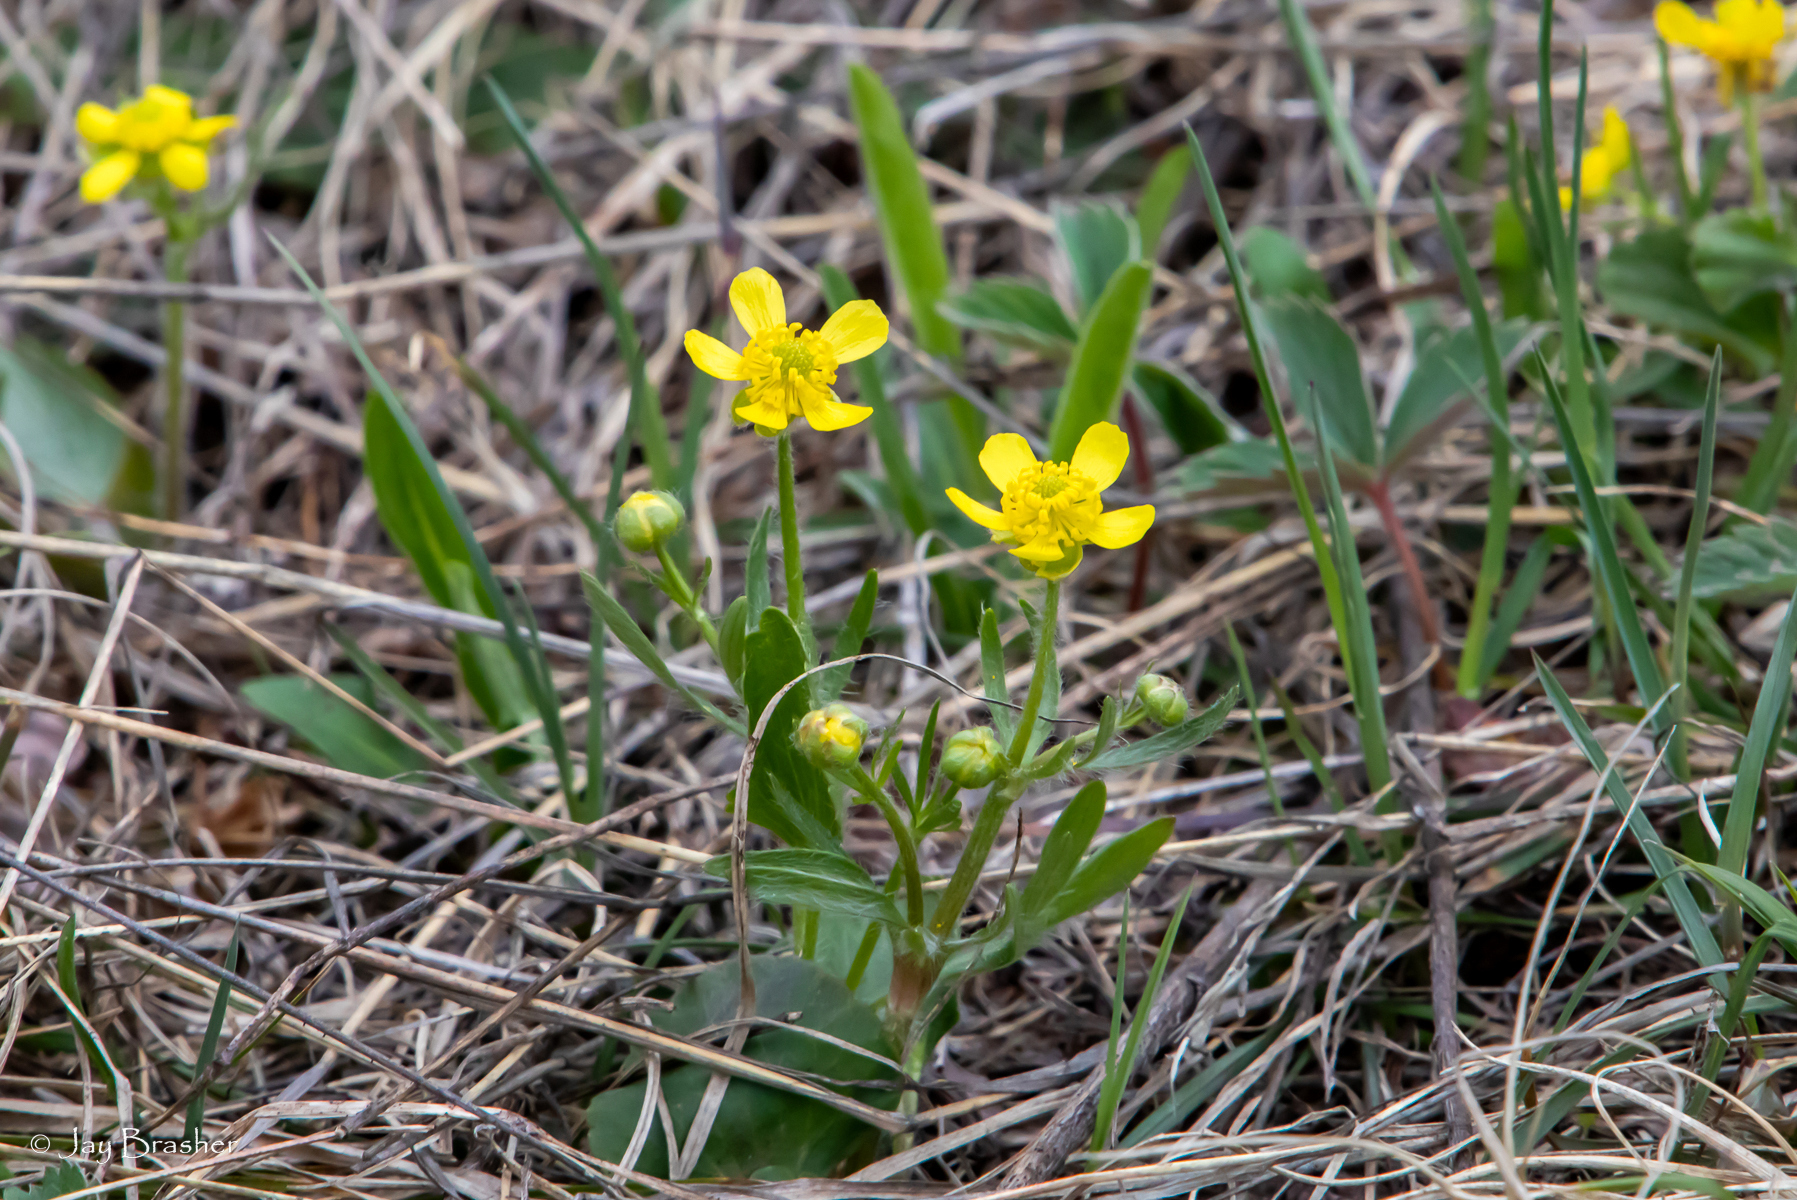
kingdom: Plantae
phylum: Tracheophyta
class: Magnoliopsida
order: Ranunculales
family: Ranunculaceae
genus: Ranunculus
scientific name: Ranunculus rhomboideus
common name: Prairie buttercup
